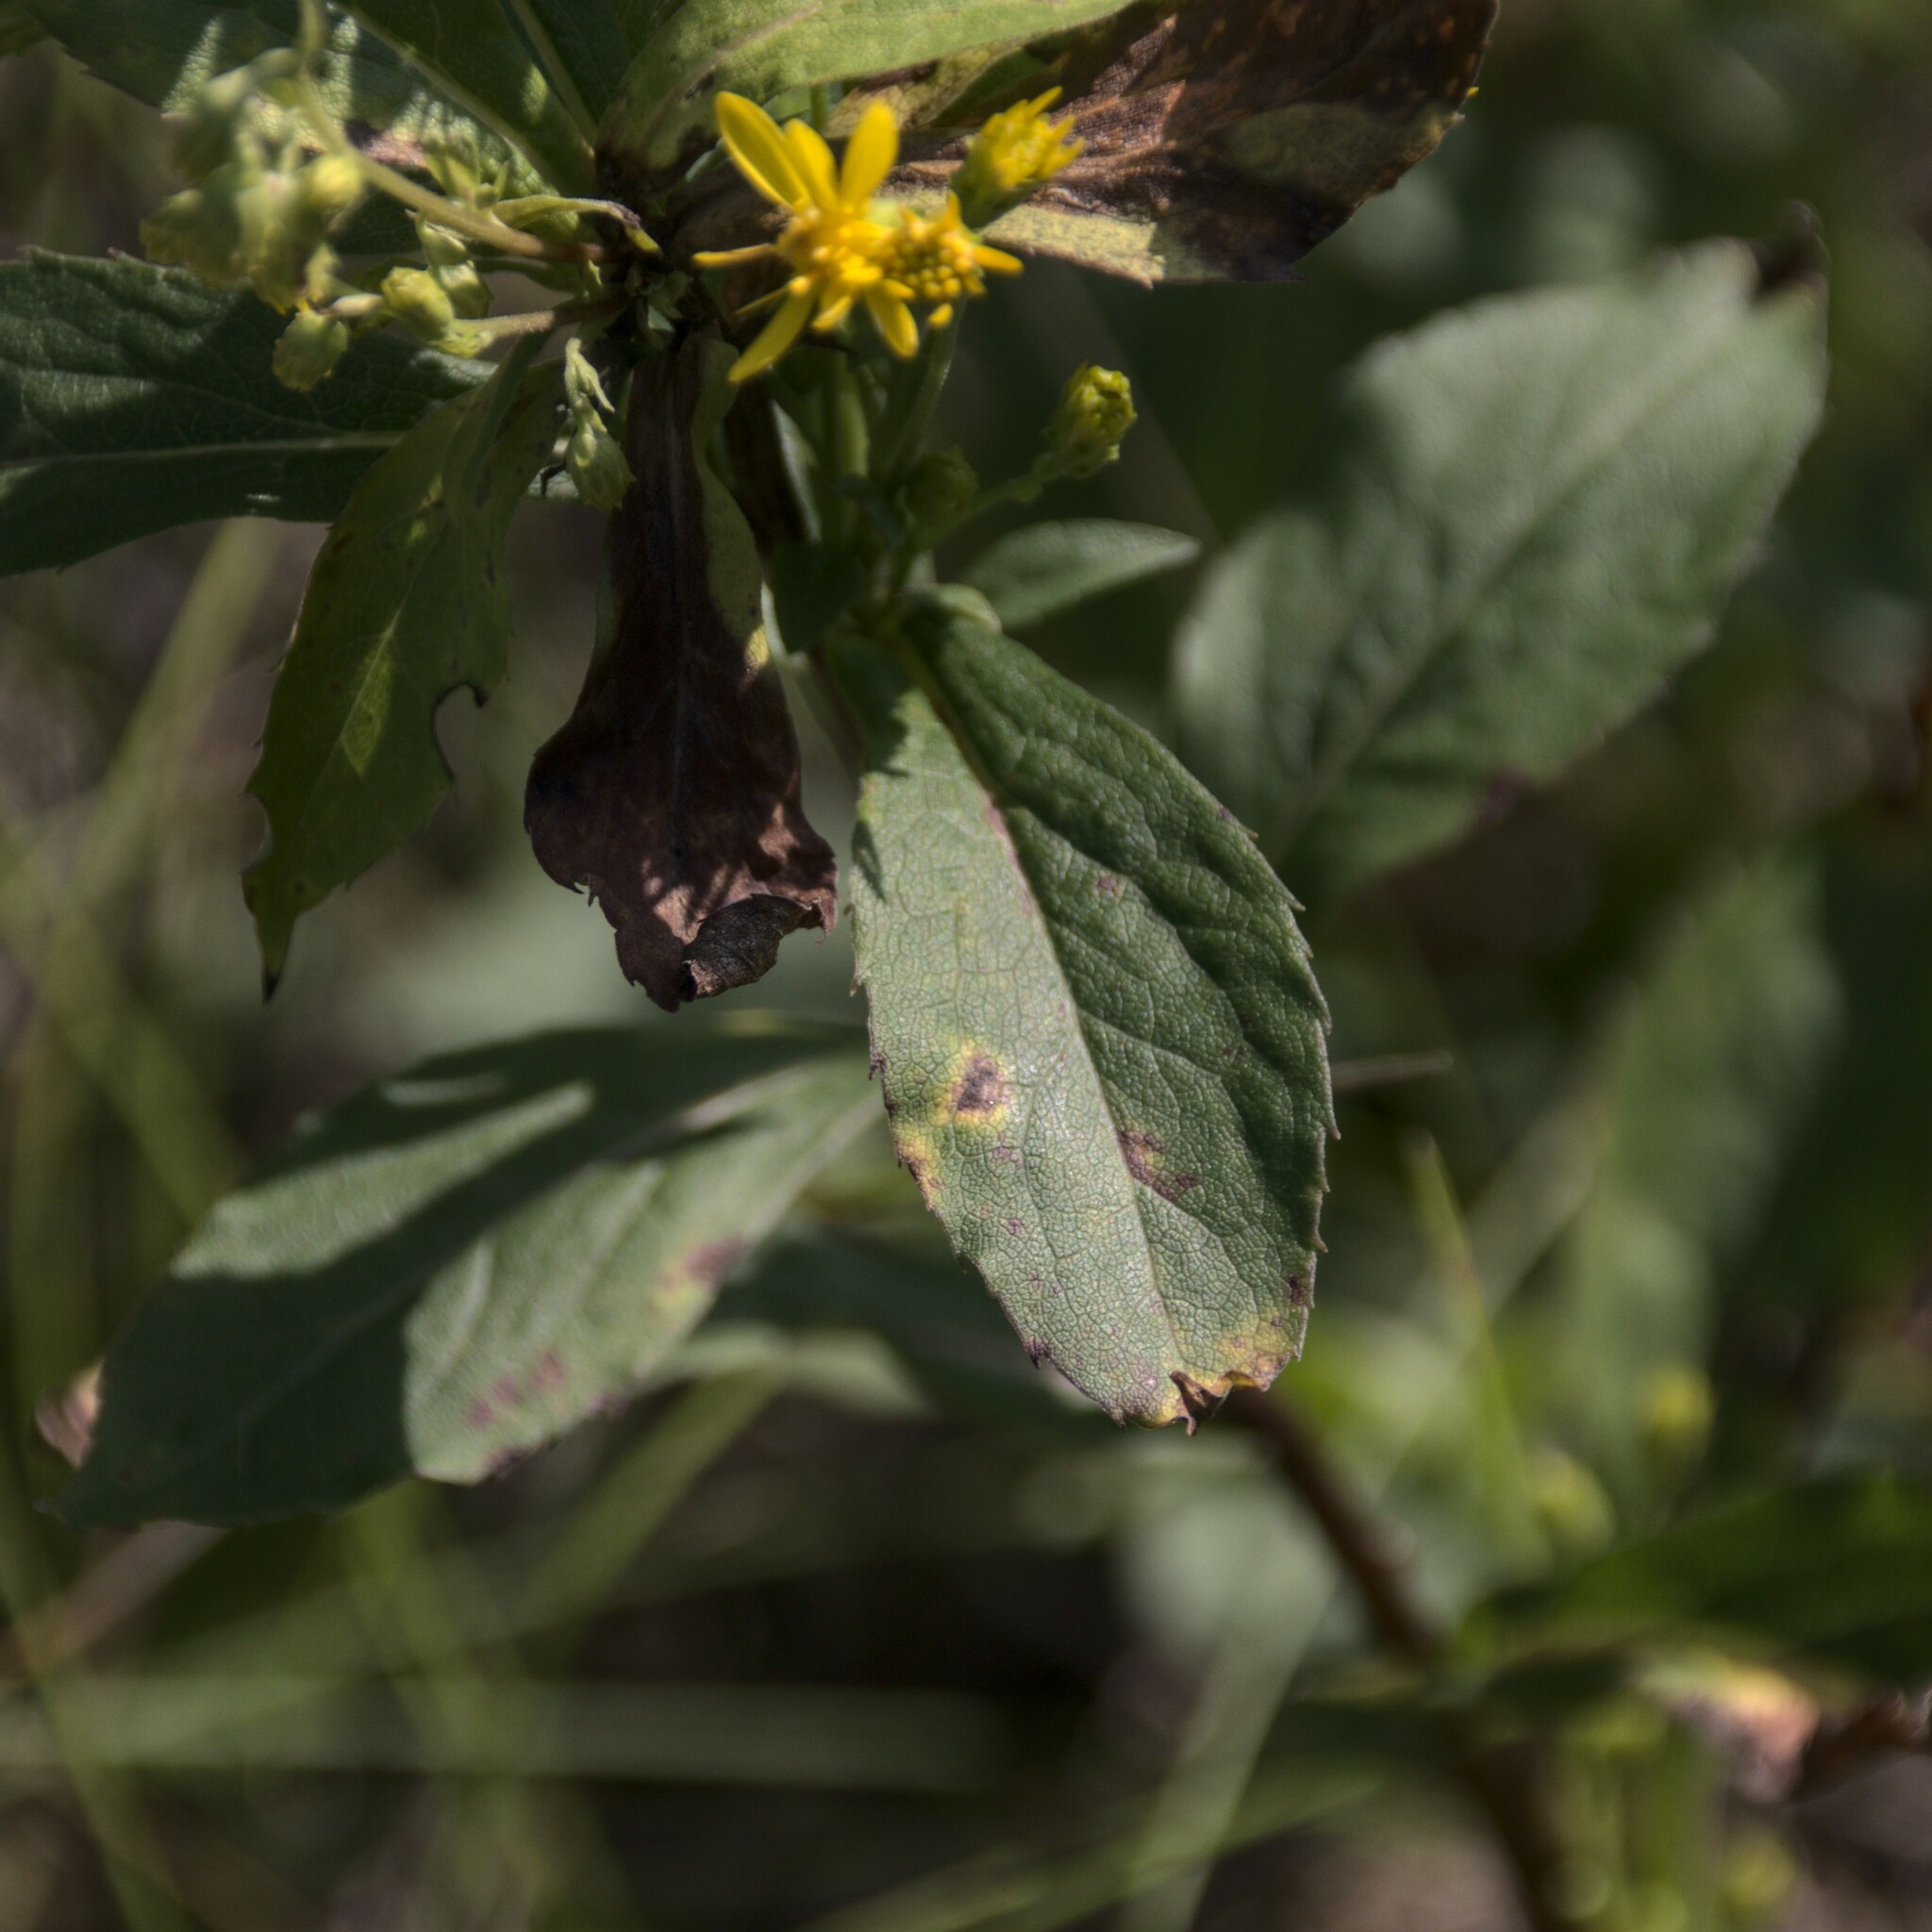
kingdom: Plantae
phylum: Tracheophyta
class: Magnoliopsida
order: Asterales
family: Asteraceae
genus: Solidago
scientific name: Solidago virgaurea
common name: Goldenrod
